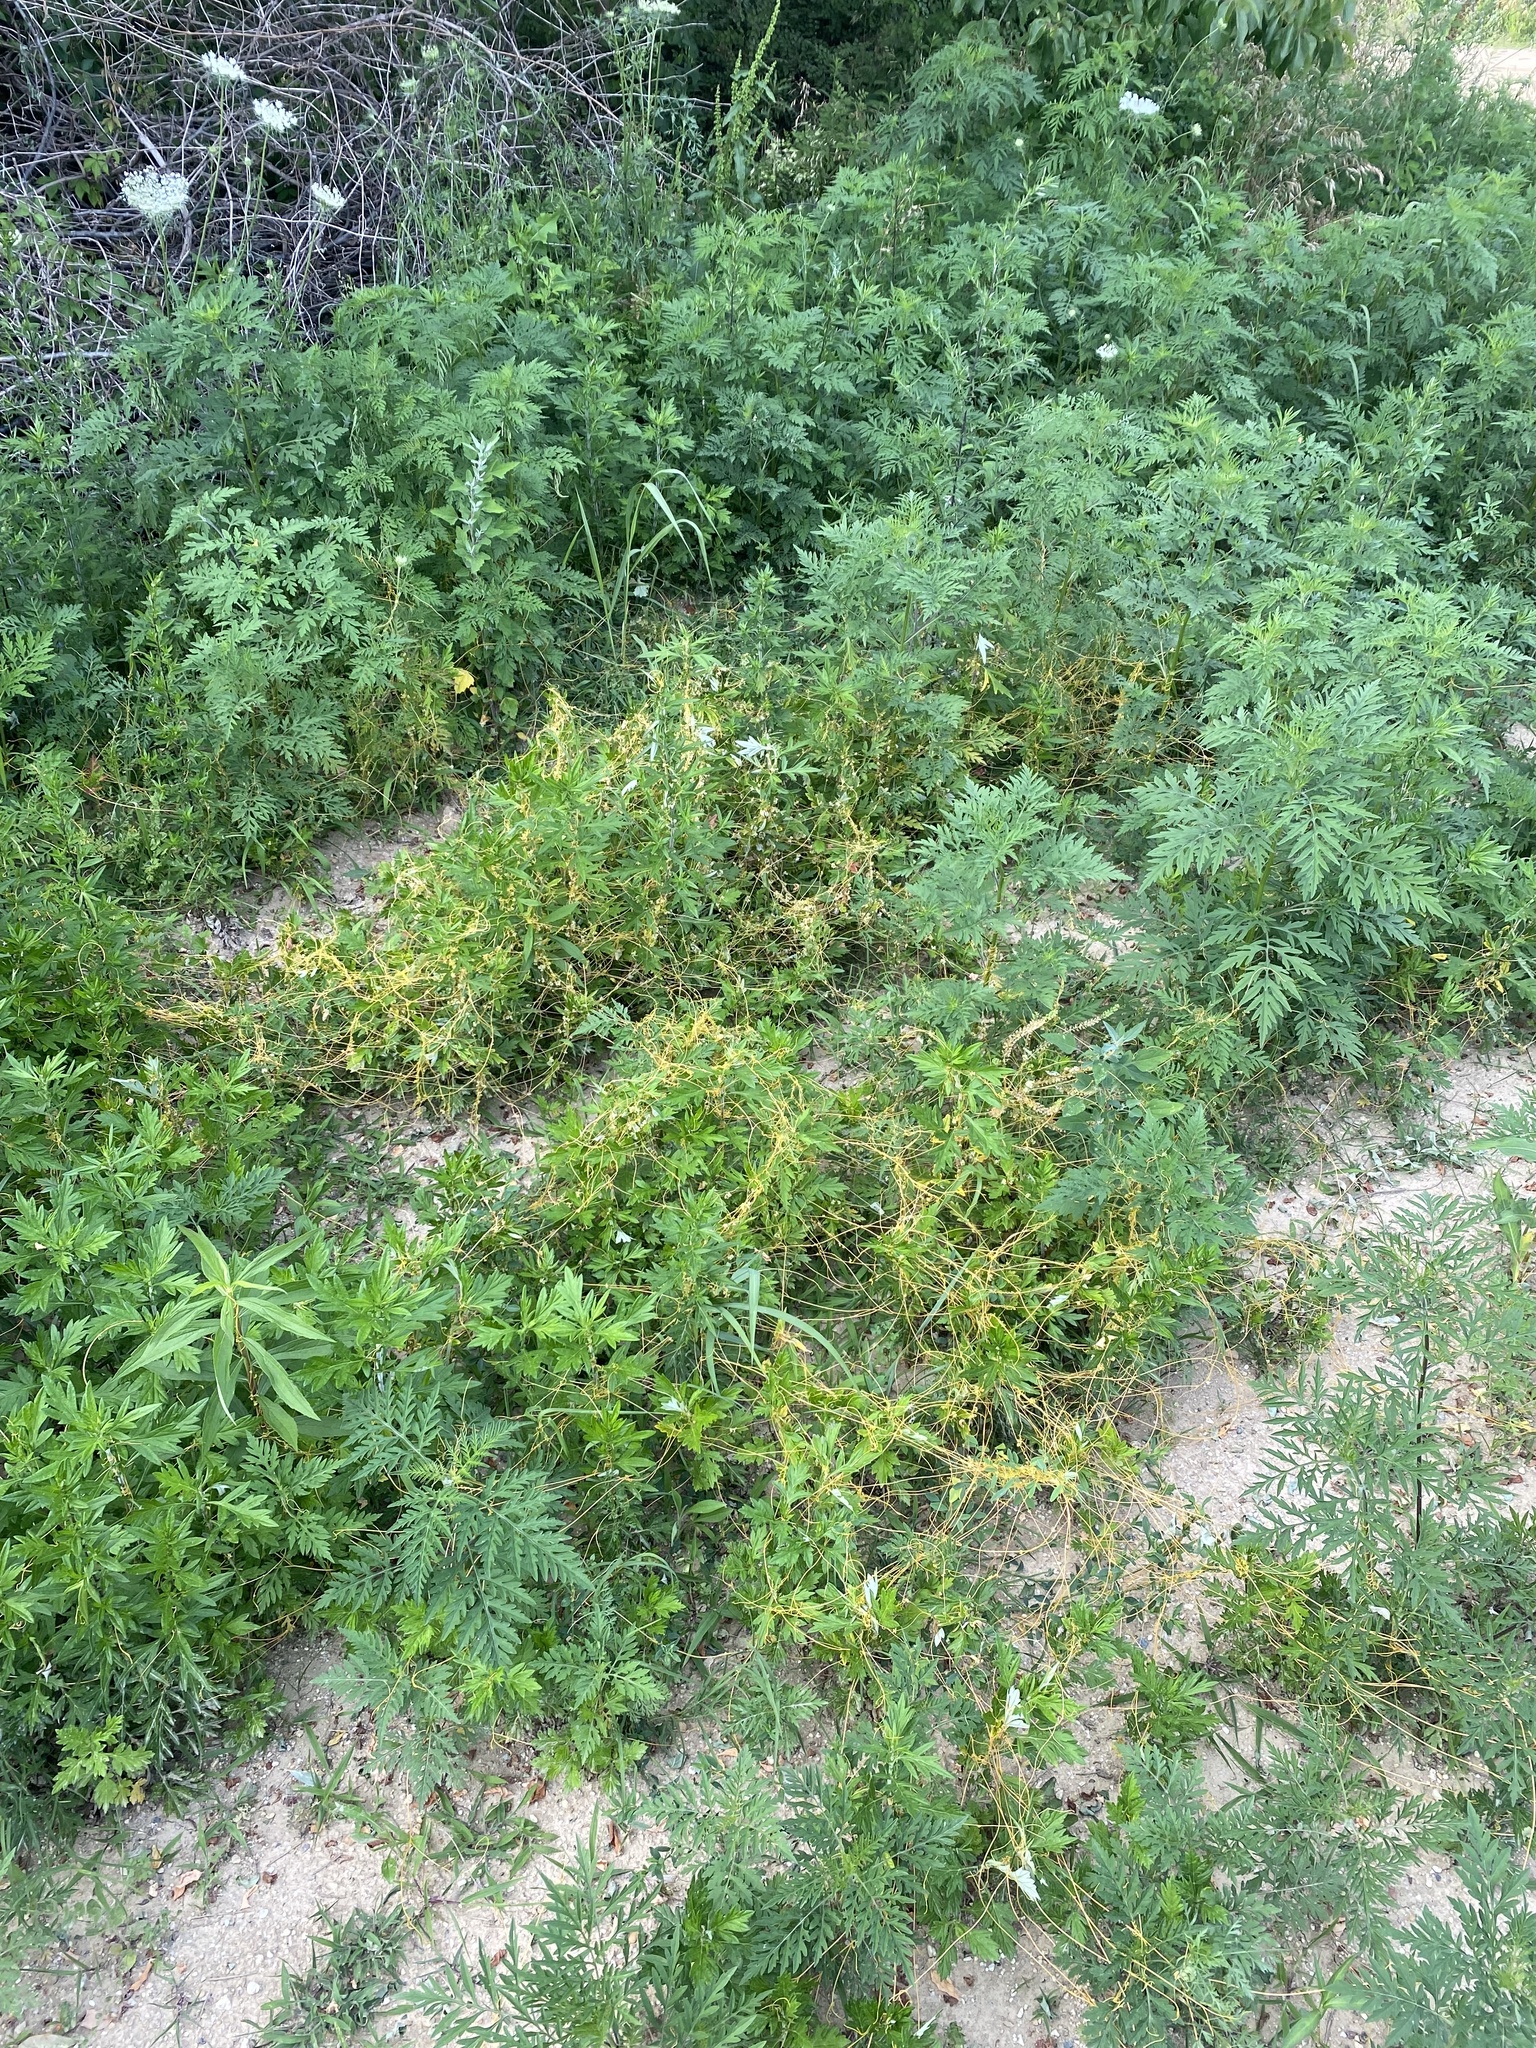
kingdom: Plantae
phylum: Tracheophyta
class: Magnoliopsida
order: Solanales
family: Convolvulaceae
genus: Cuscuta
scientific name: Cuscuta campestris
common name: Yellow dodder
